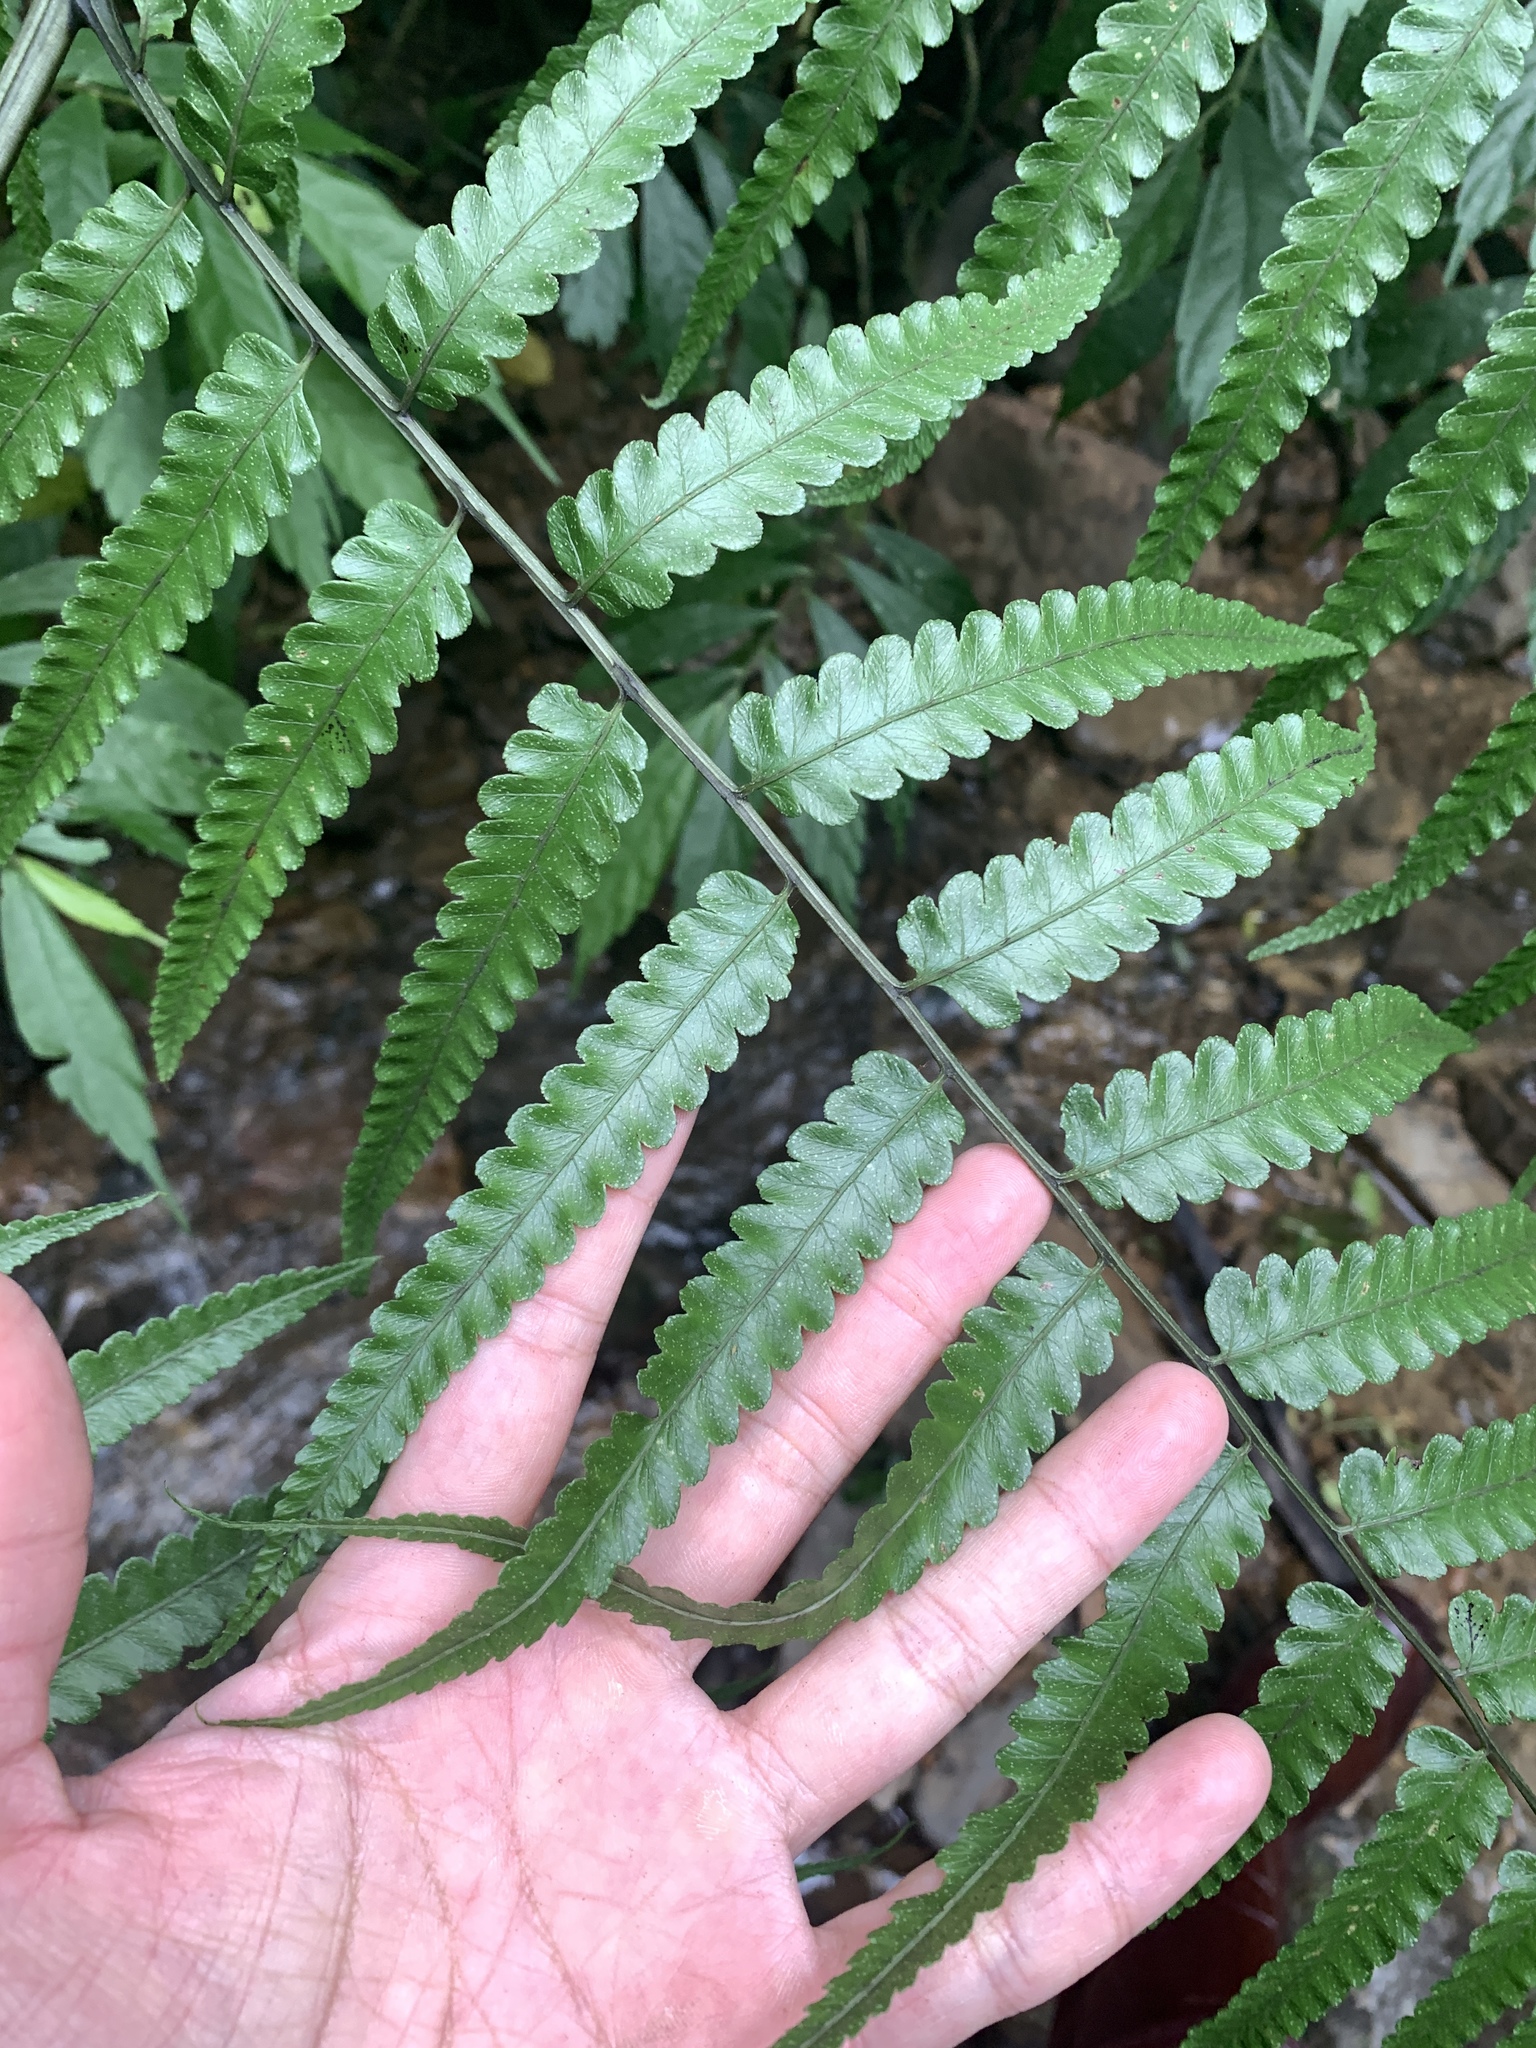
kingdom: Plantae
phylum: Tracheophyta
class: Polypodiopsida
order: Polypodiales
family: Athyriaceae
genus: Diplazium
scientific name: Diplazium dilatatum
